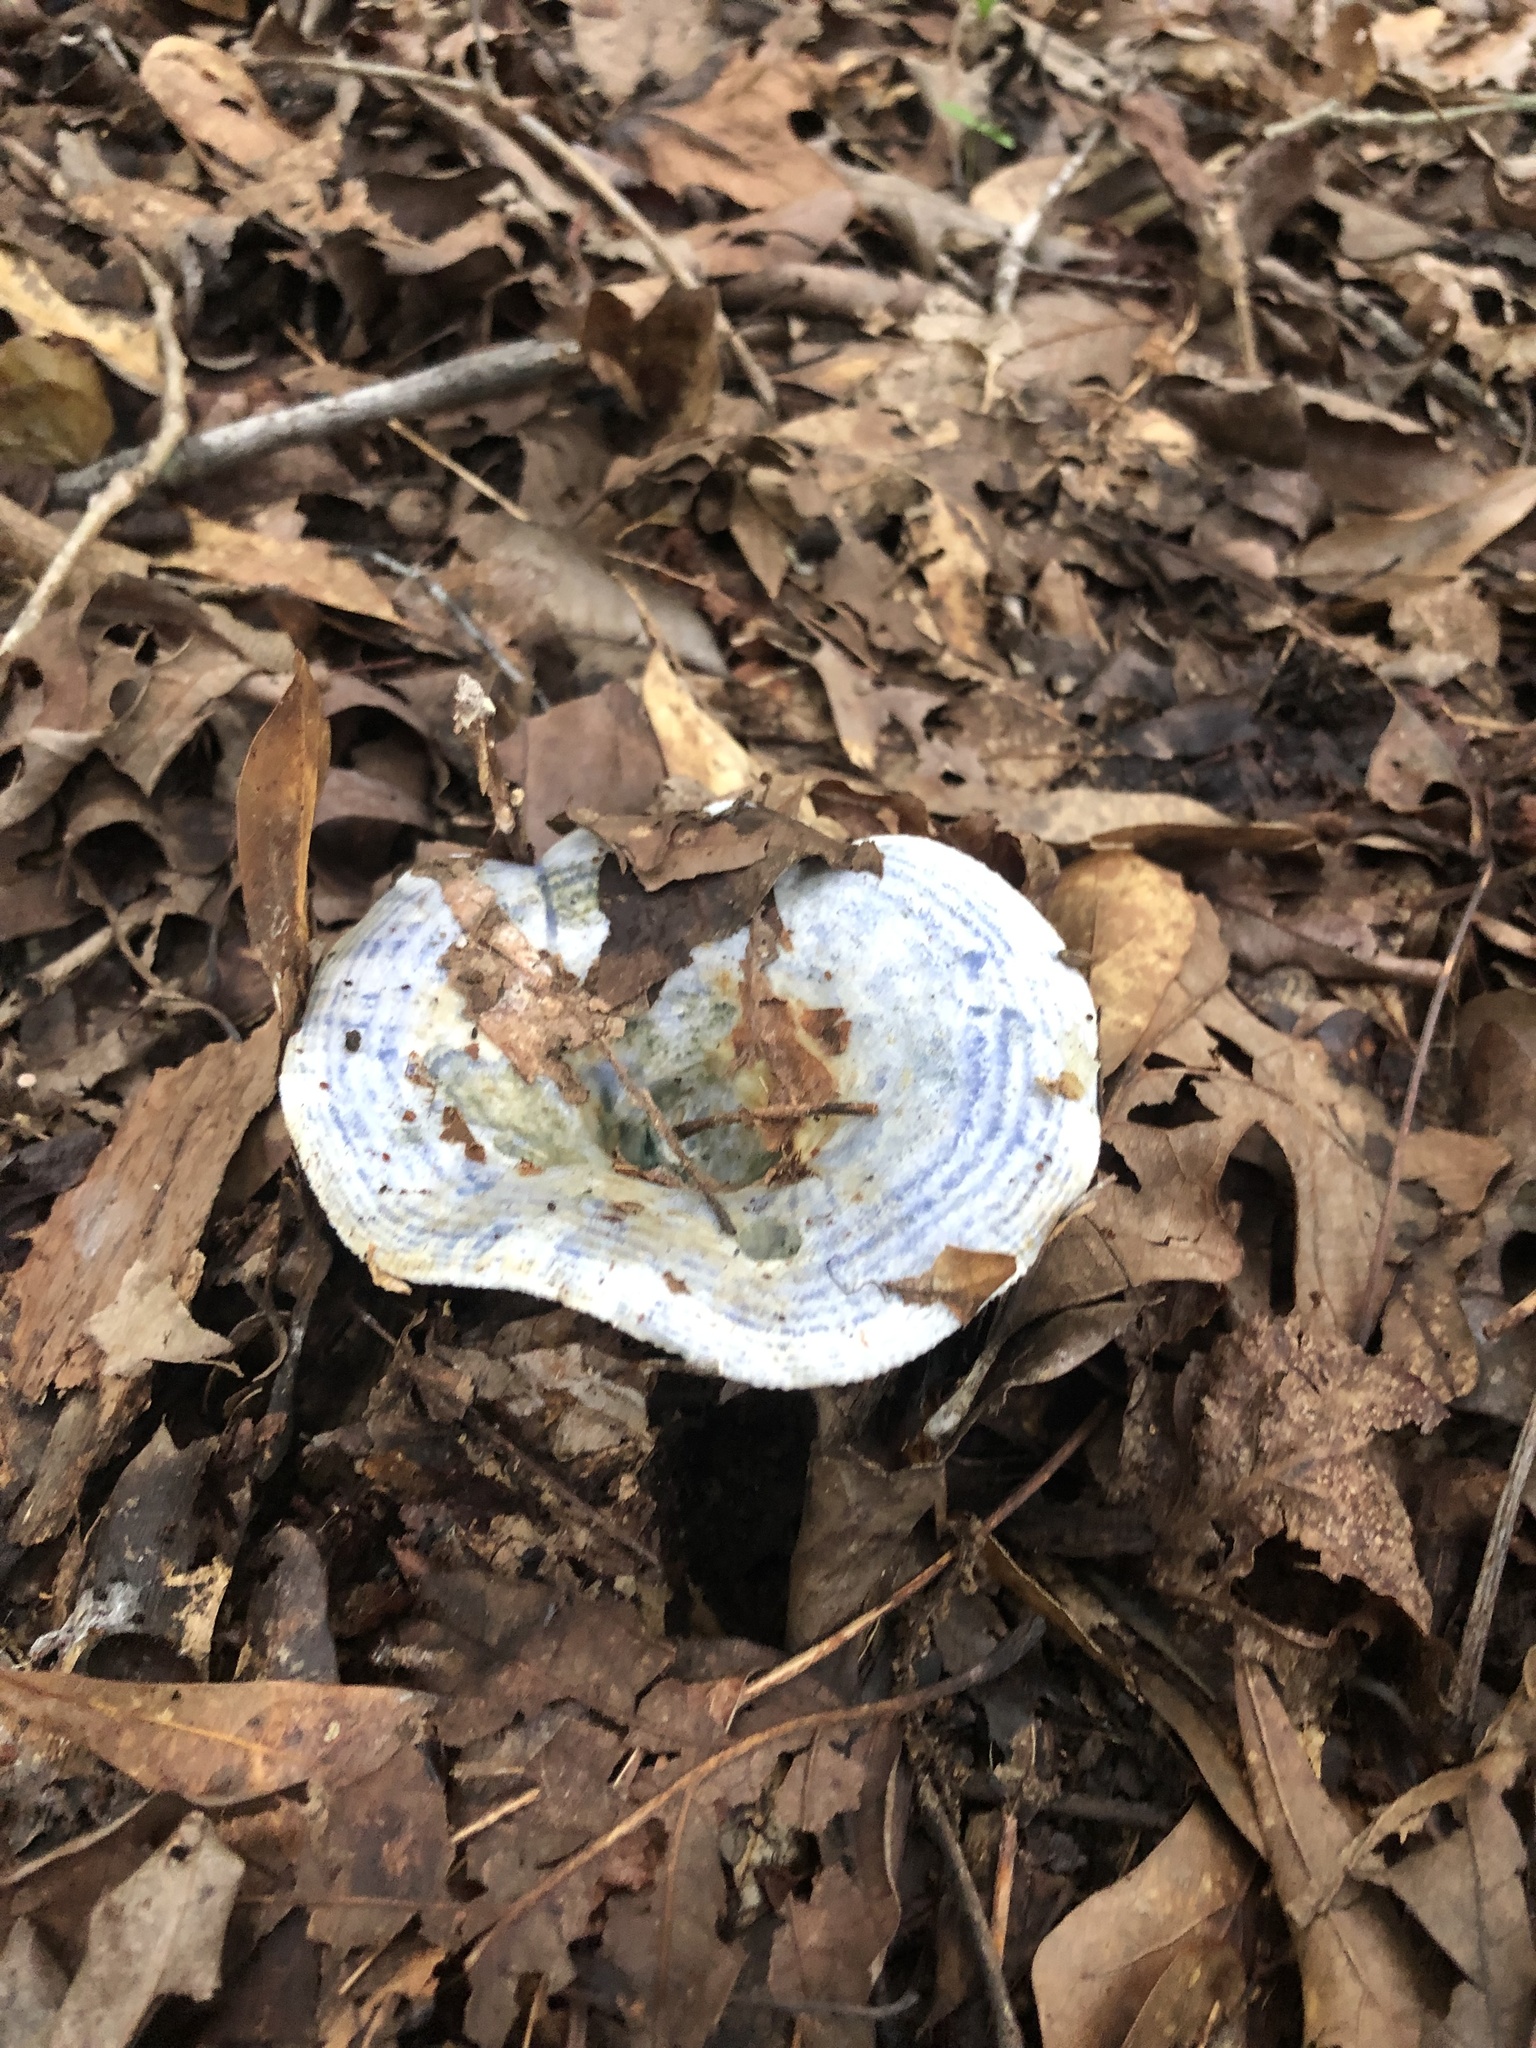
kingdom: Fungi
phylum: Basidiomycota
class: Agaricomycetes
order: Russulales
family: Russulaceae
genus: Lactarius
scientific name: Lactarius indigo
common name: Indigo milk cap
